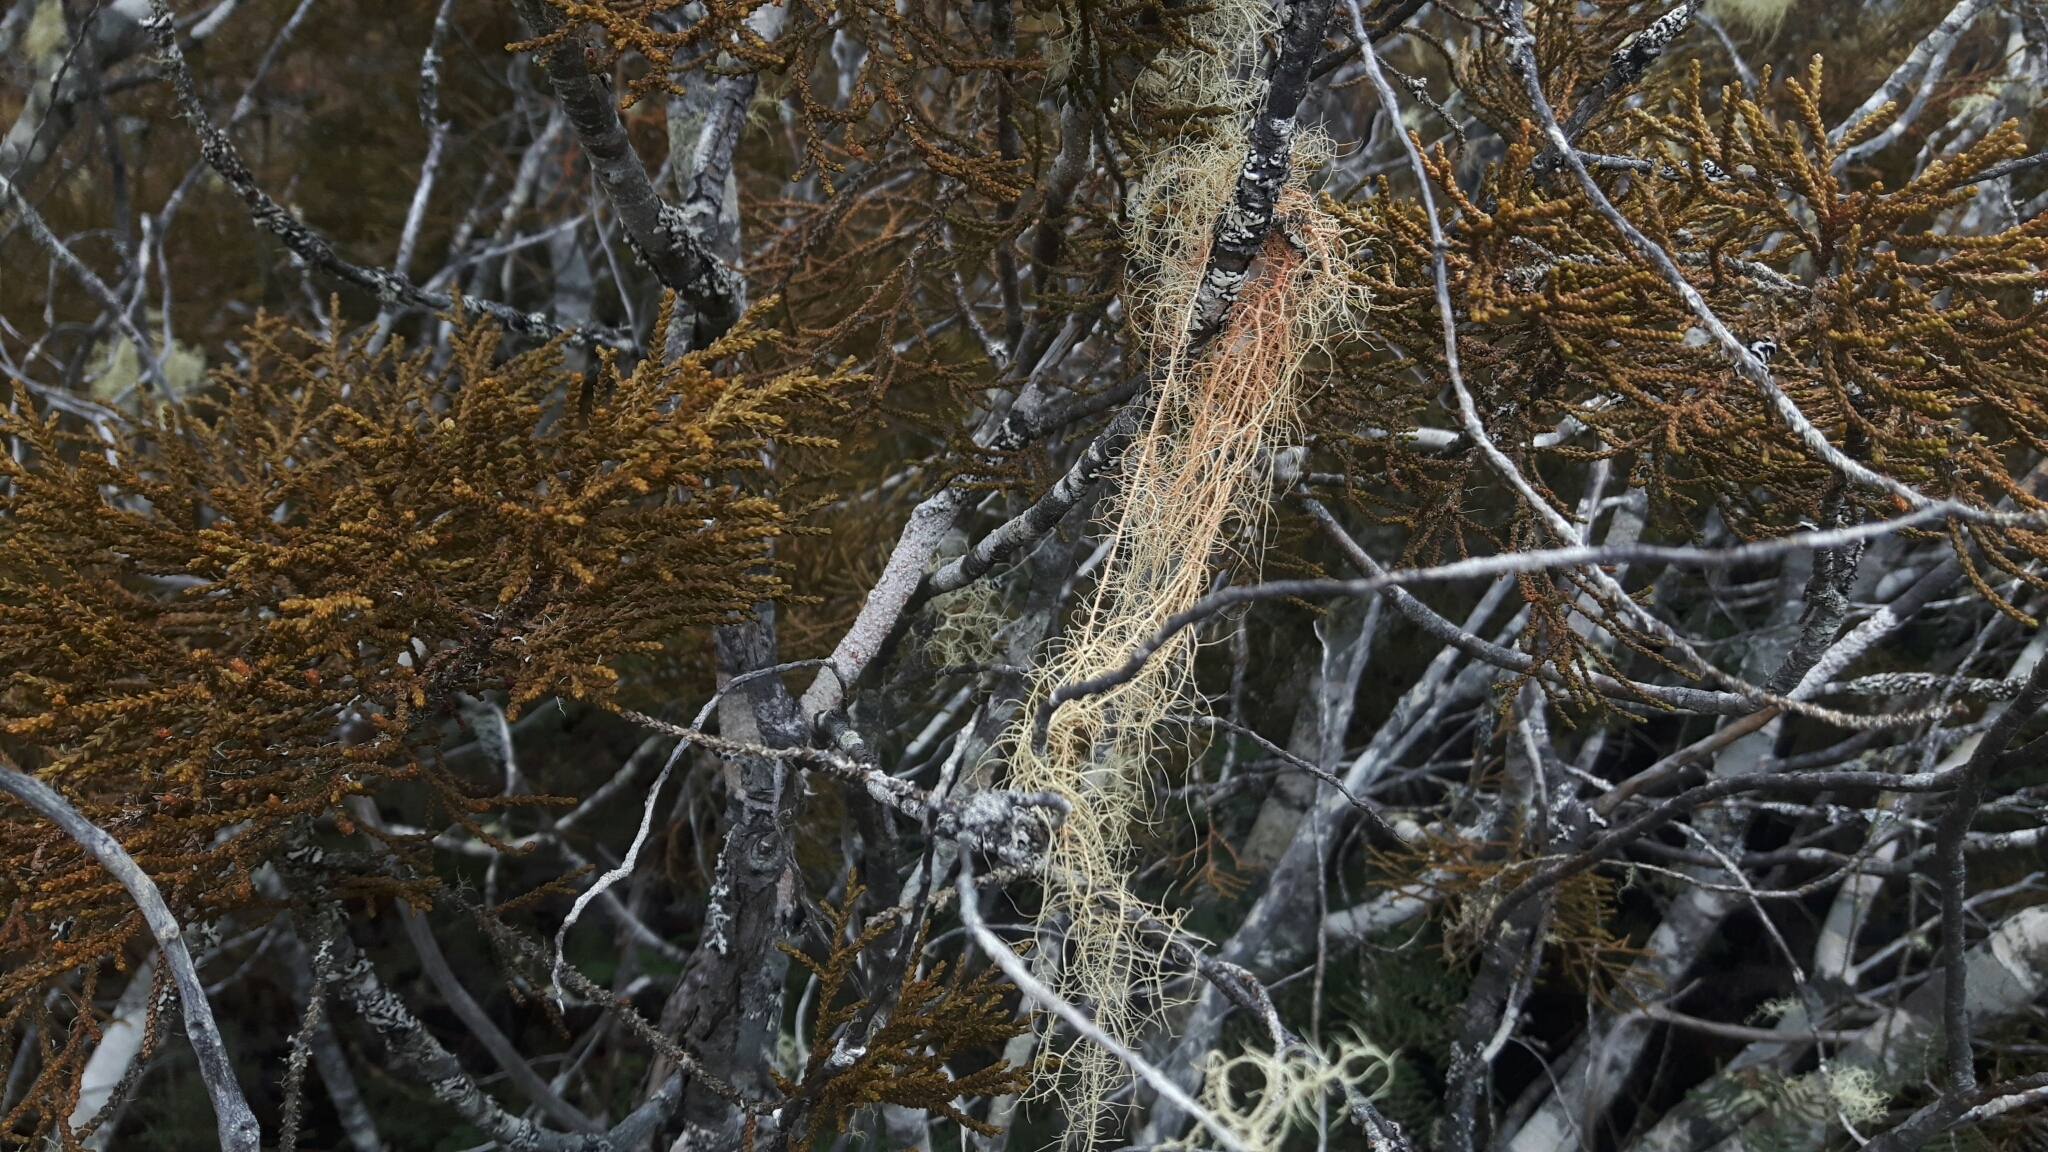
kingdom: Fungi
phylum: Ascomycota
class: Lecanoromycetes
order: Lecanorales
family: Parmeliaceae
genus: Usnea
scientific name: Usnea rubicunda
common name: Red beard lichen
